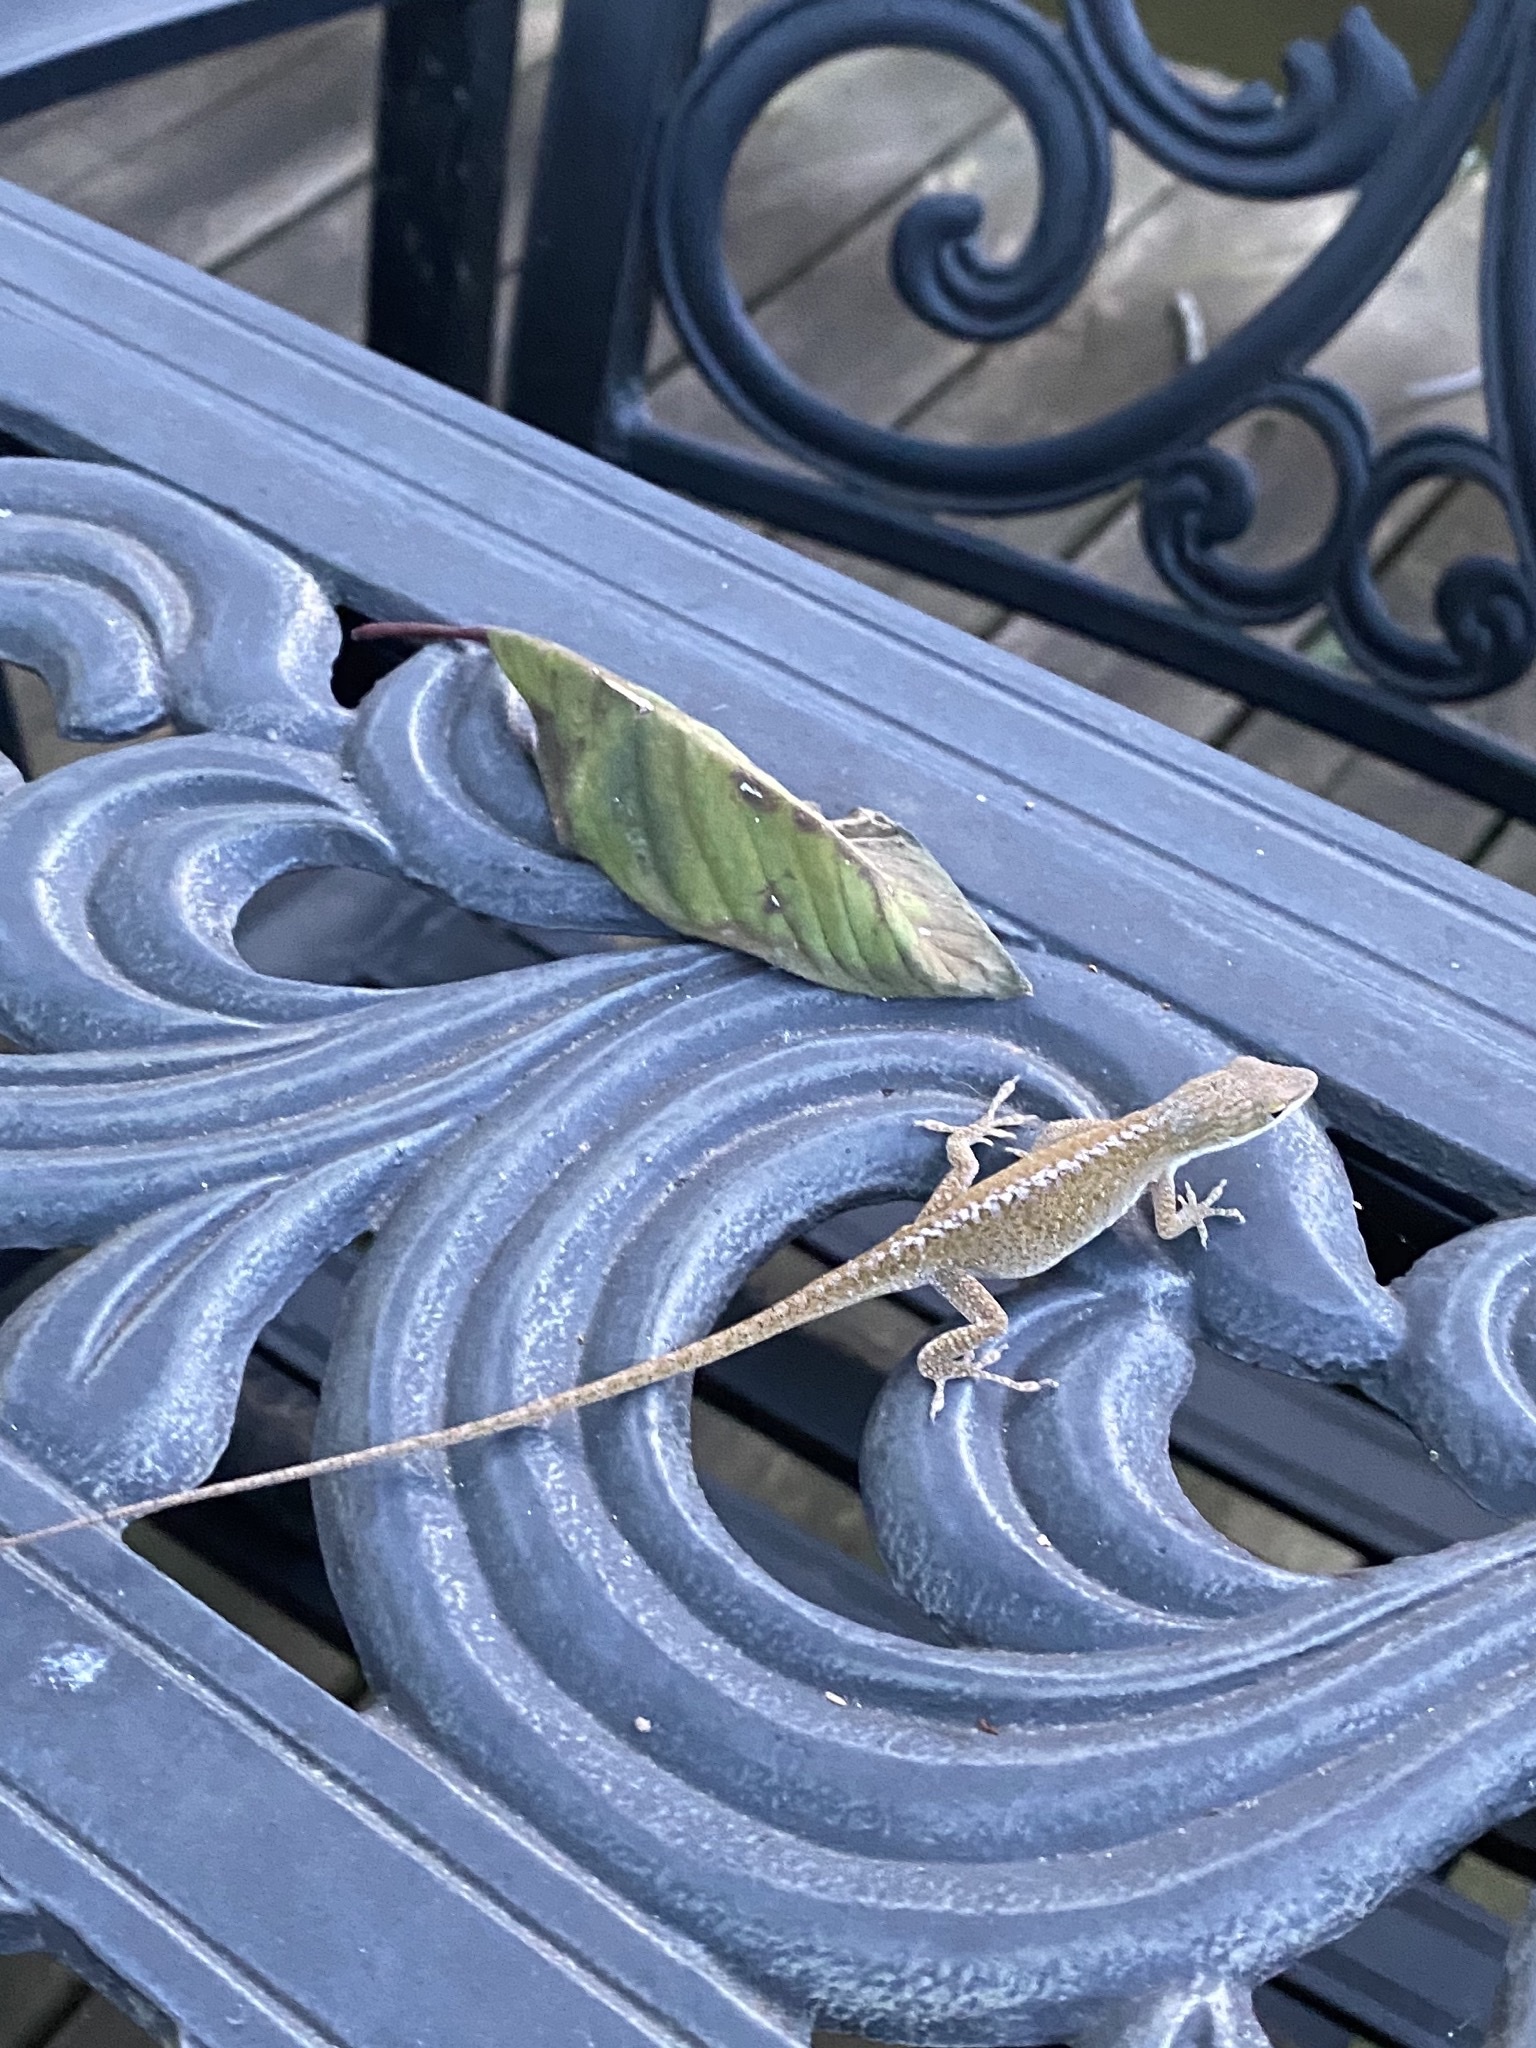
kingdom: Animalia
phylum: Chordata
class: Squamata
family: Dactyloidae
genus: Anolis
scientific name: Anolis carolinensis
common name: Green anole
